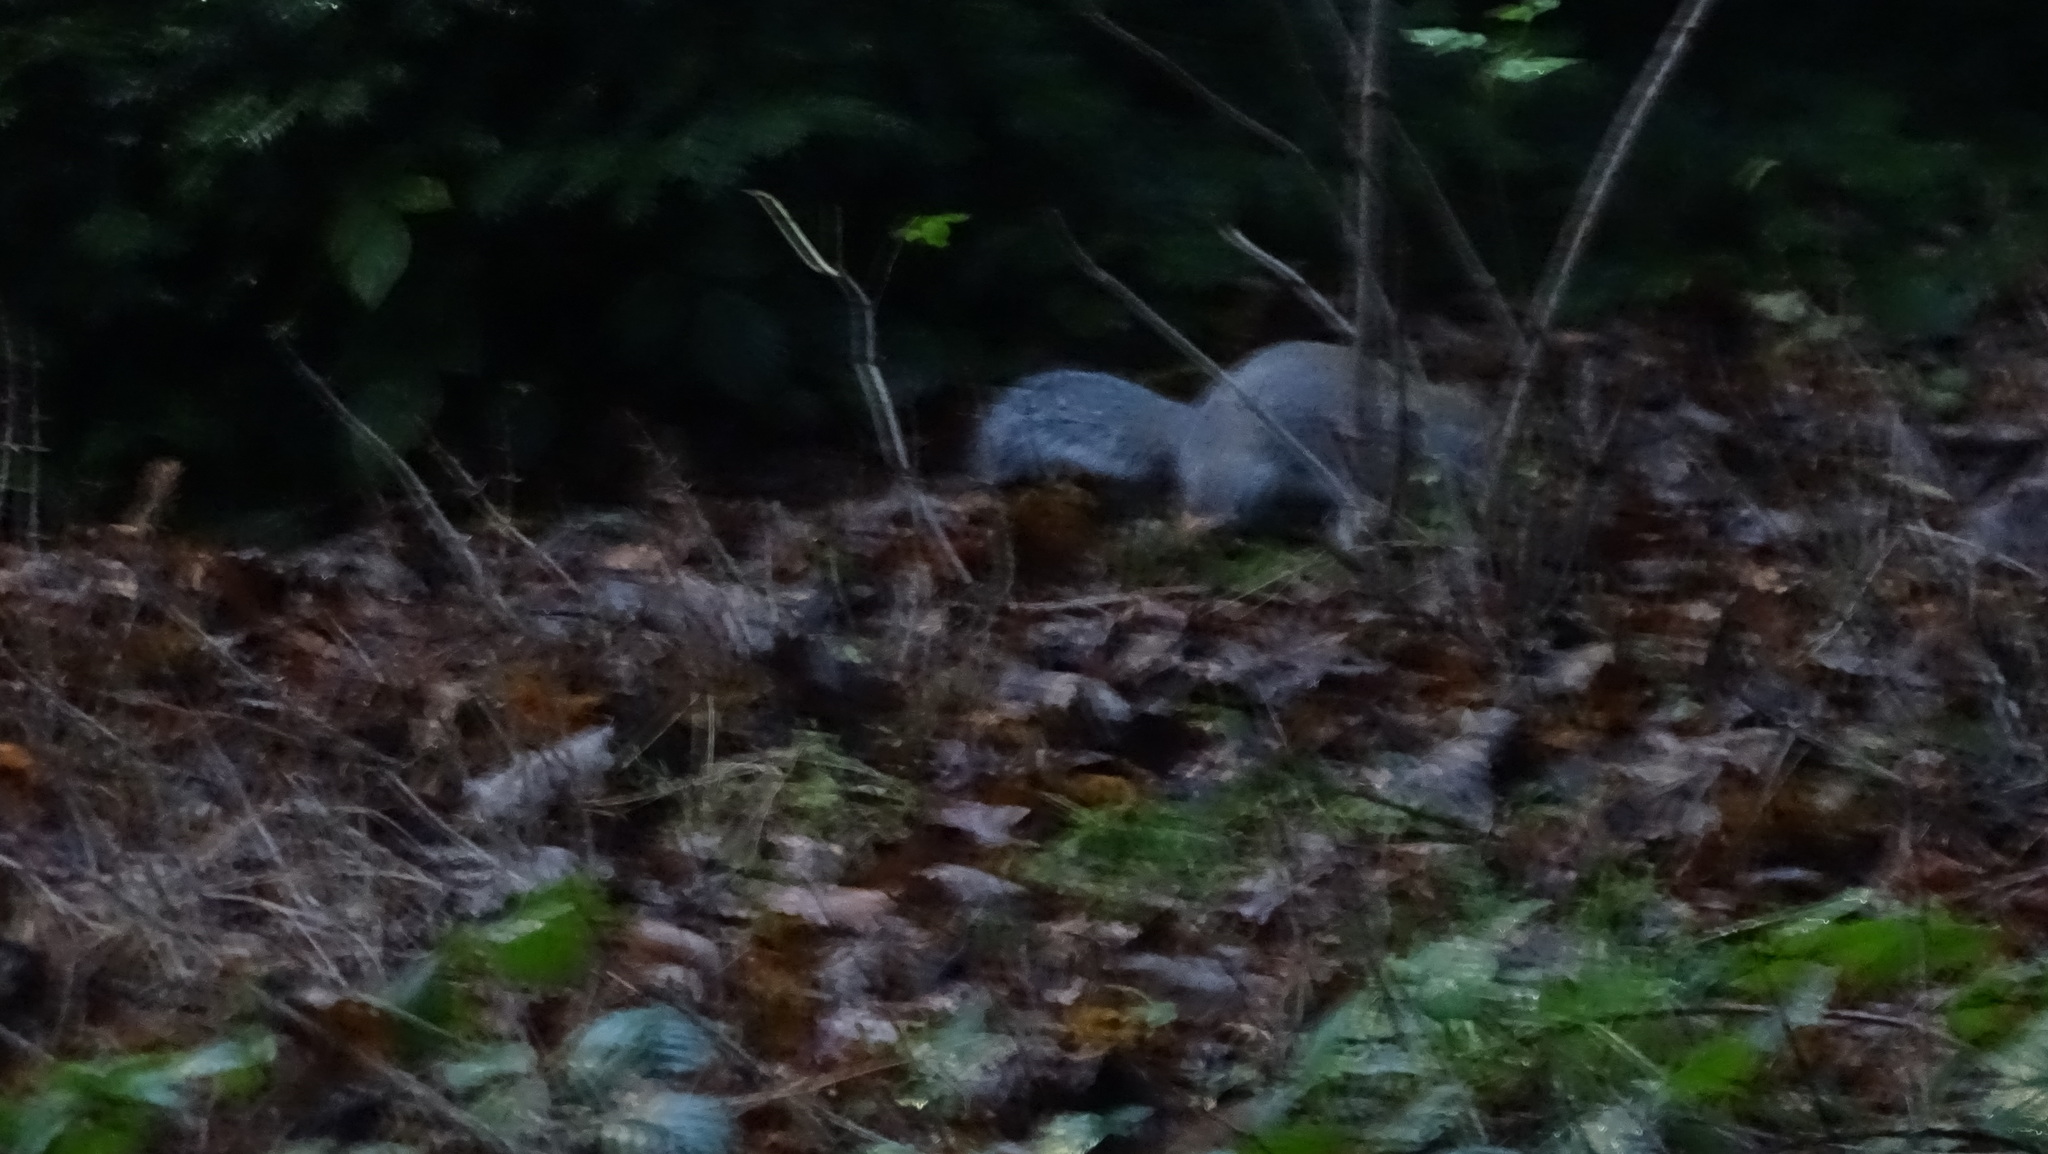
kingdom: Animalia
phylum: Chordata
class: Mammalia
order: Rodentia
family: Sciuridae
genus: Sciurus
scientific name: Sciurus carolinensis
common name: Eastern gray squirrel
